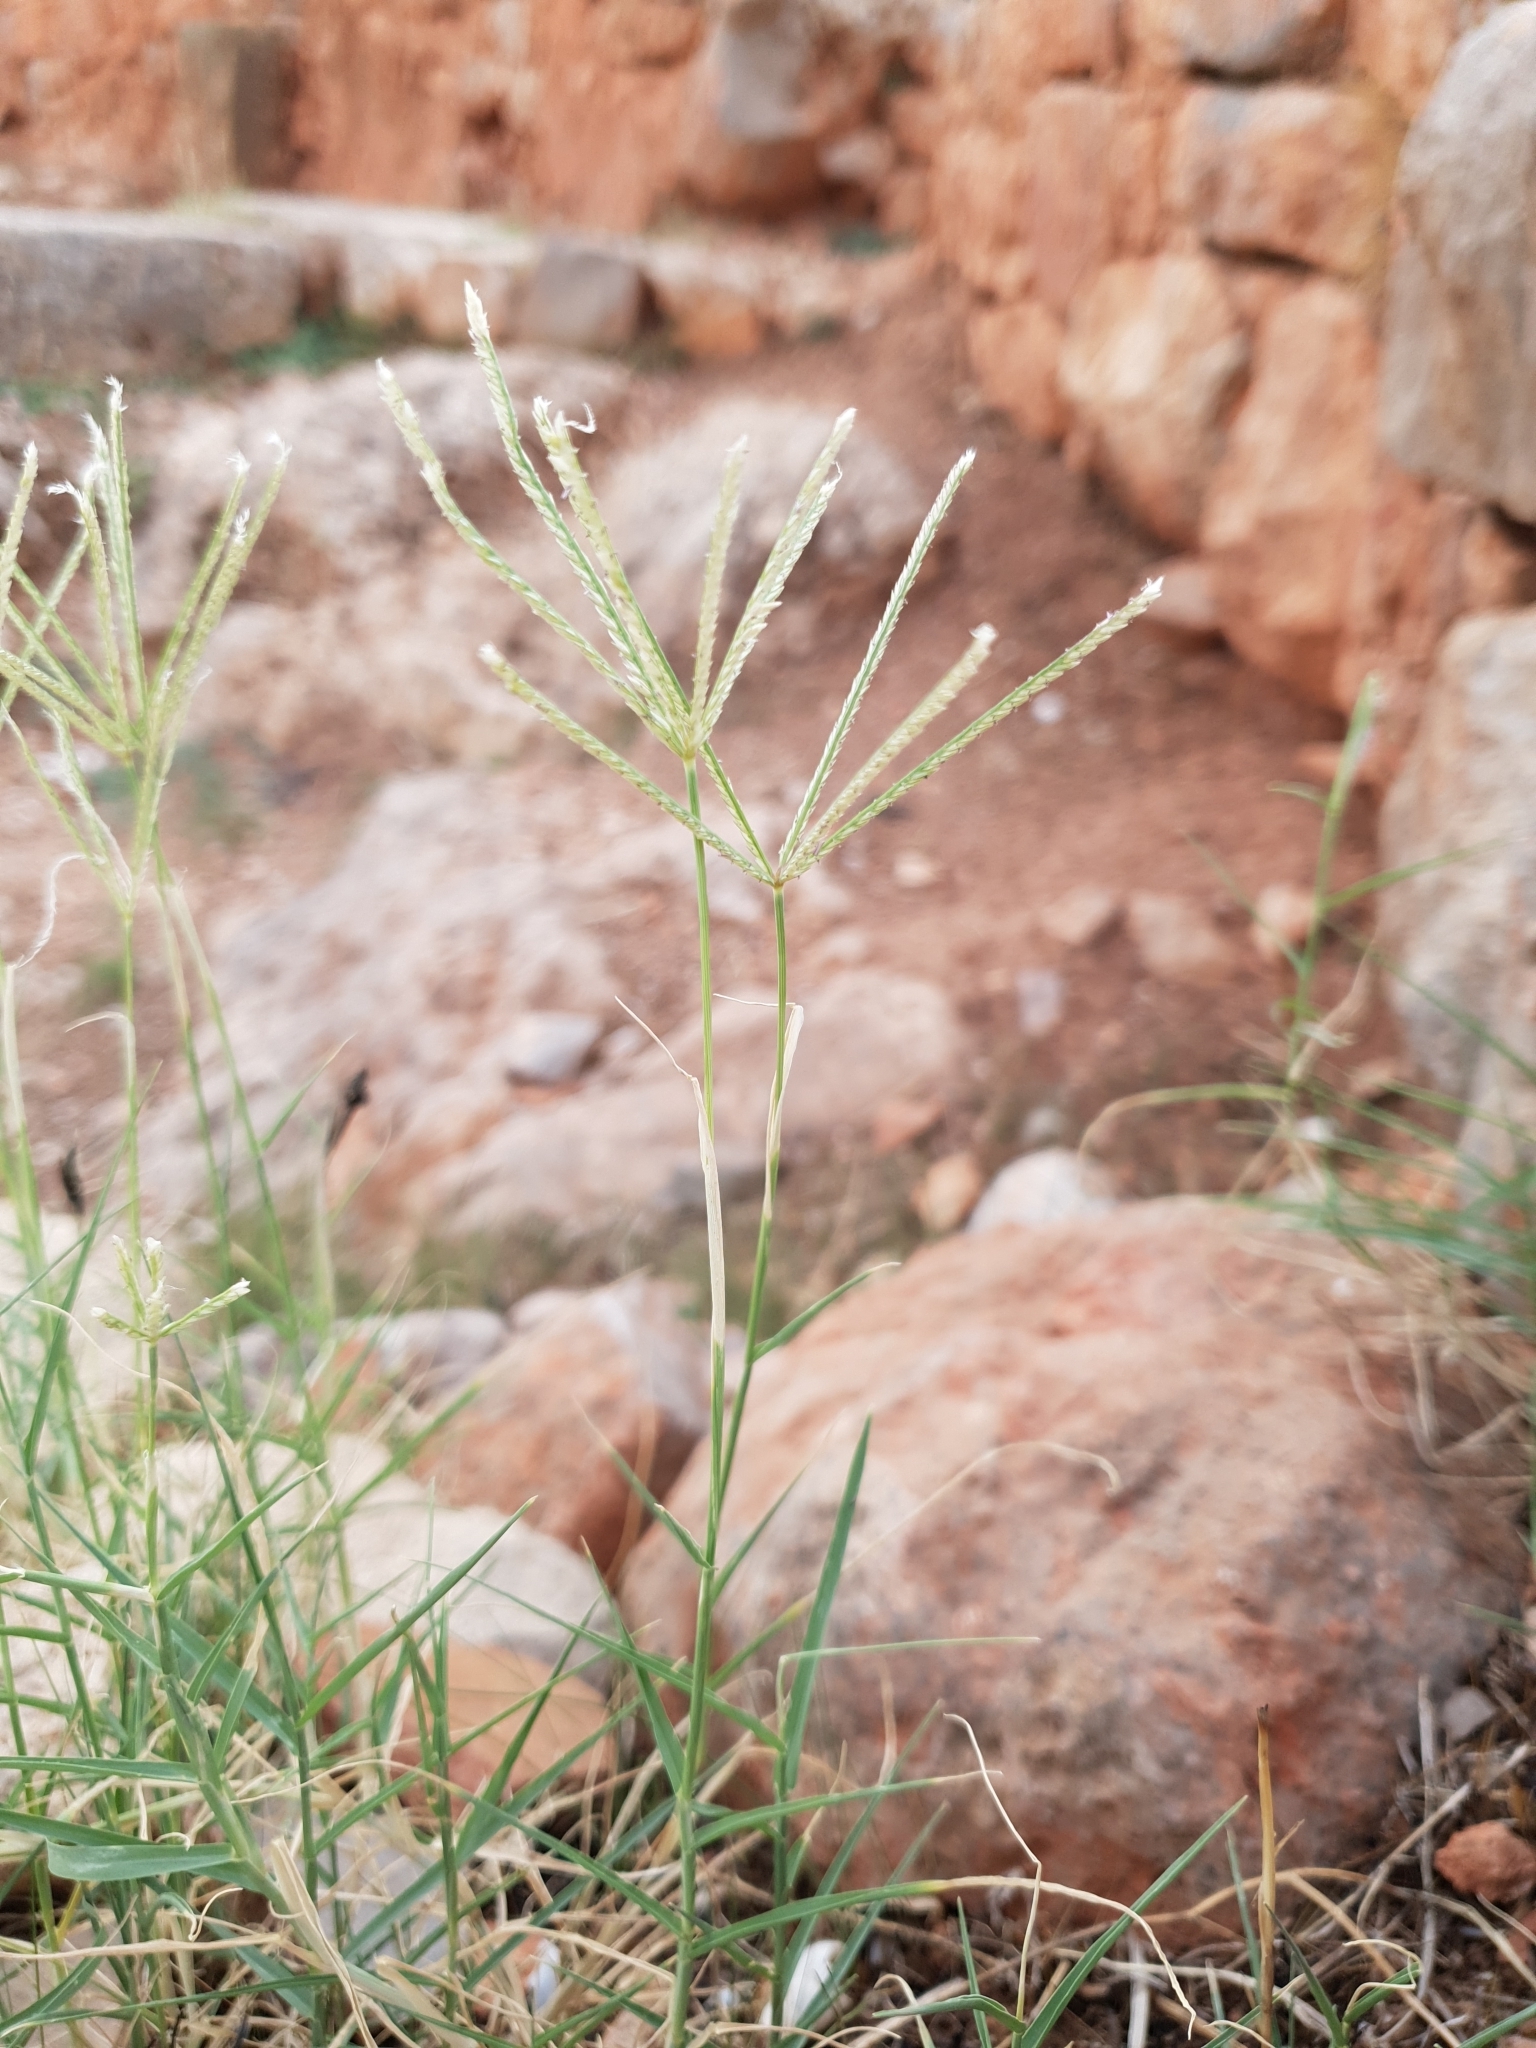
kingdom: Plantae
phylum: Tracheophyta
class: Liliopsida
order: Poales
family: Poaceae
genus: Cynodon
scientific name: Cynodon dactylon
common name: Bermuda grass
